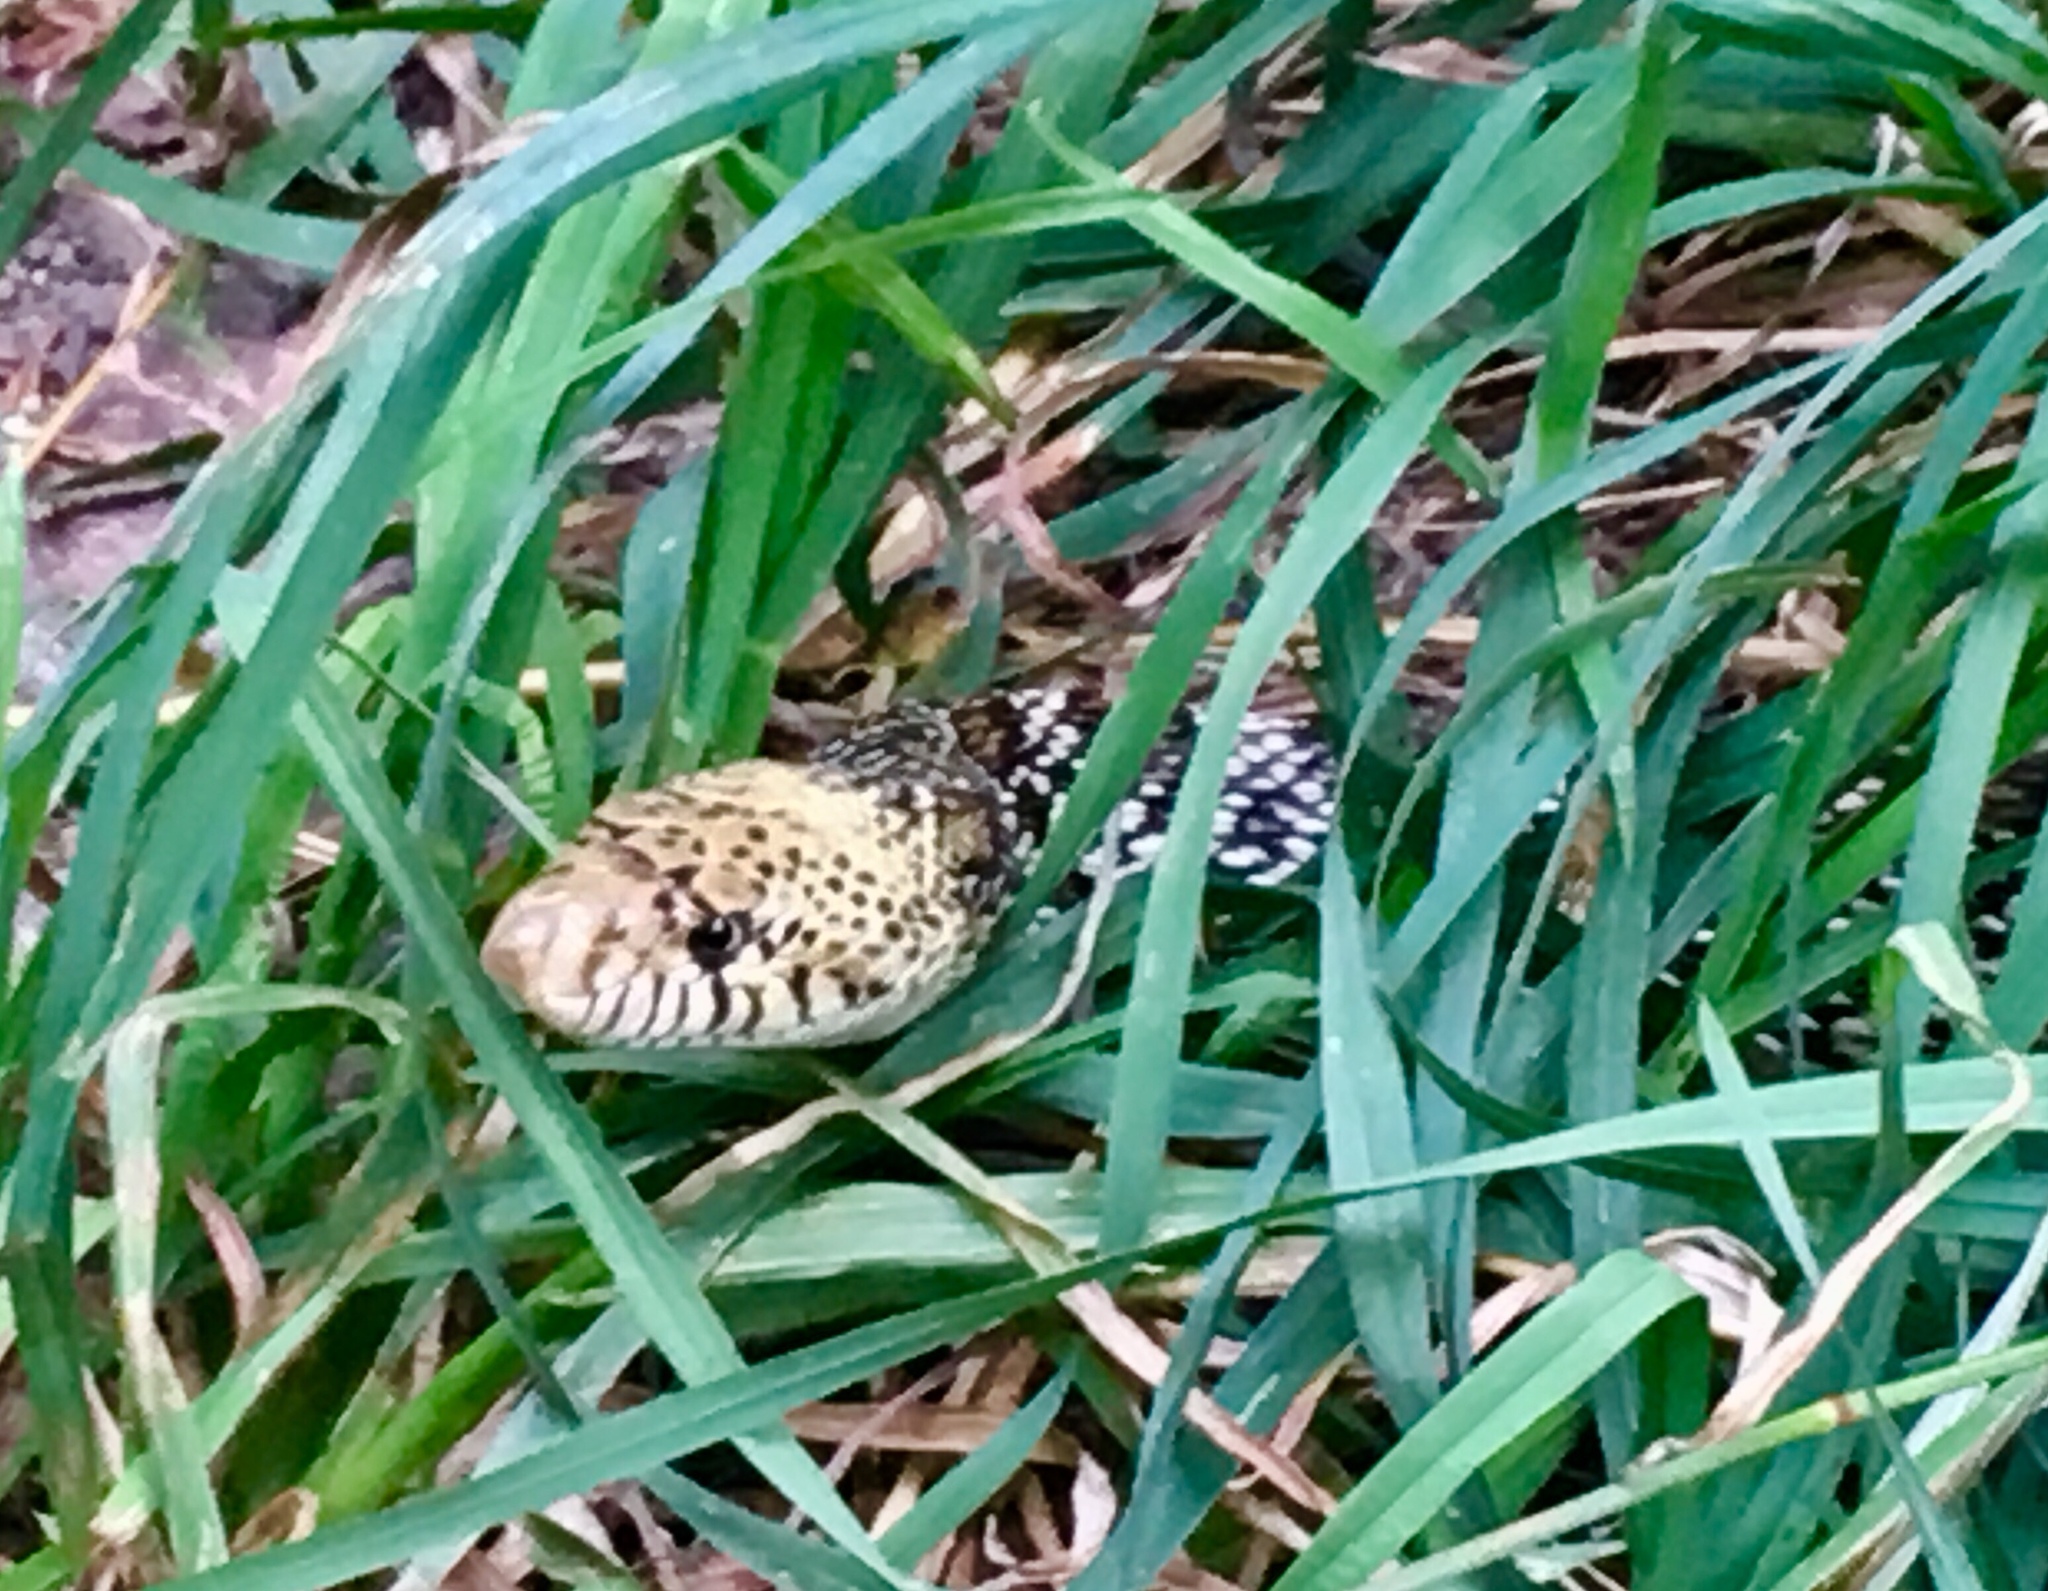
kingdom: Animalia
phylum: Chordata
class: Squamata
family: Colubridae
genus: Pituophis
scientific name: Pituophis catenifer
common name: Gopher snake
